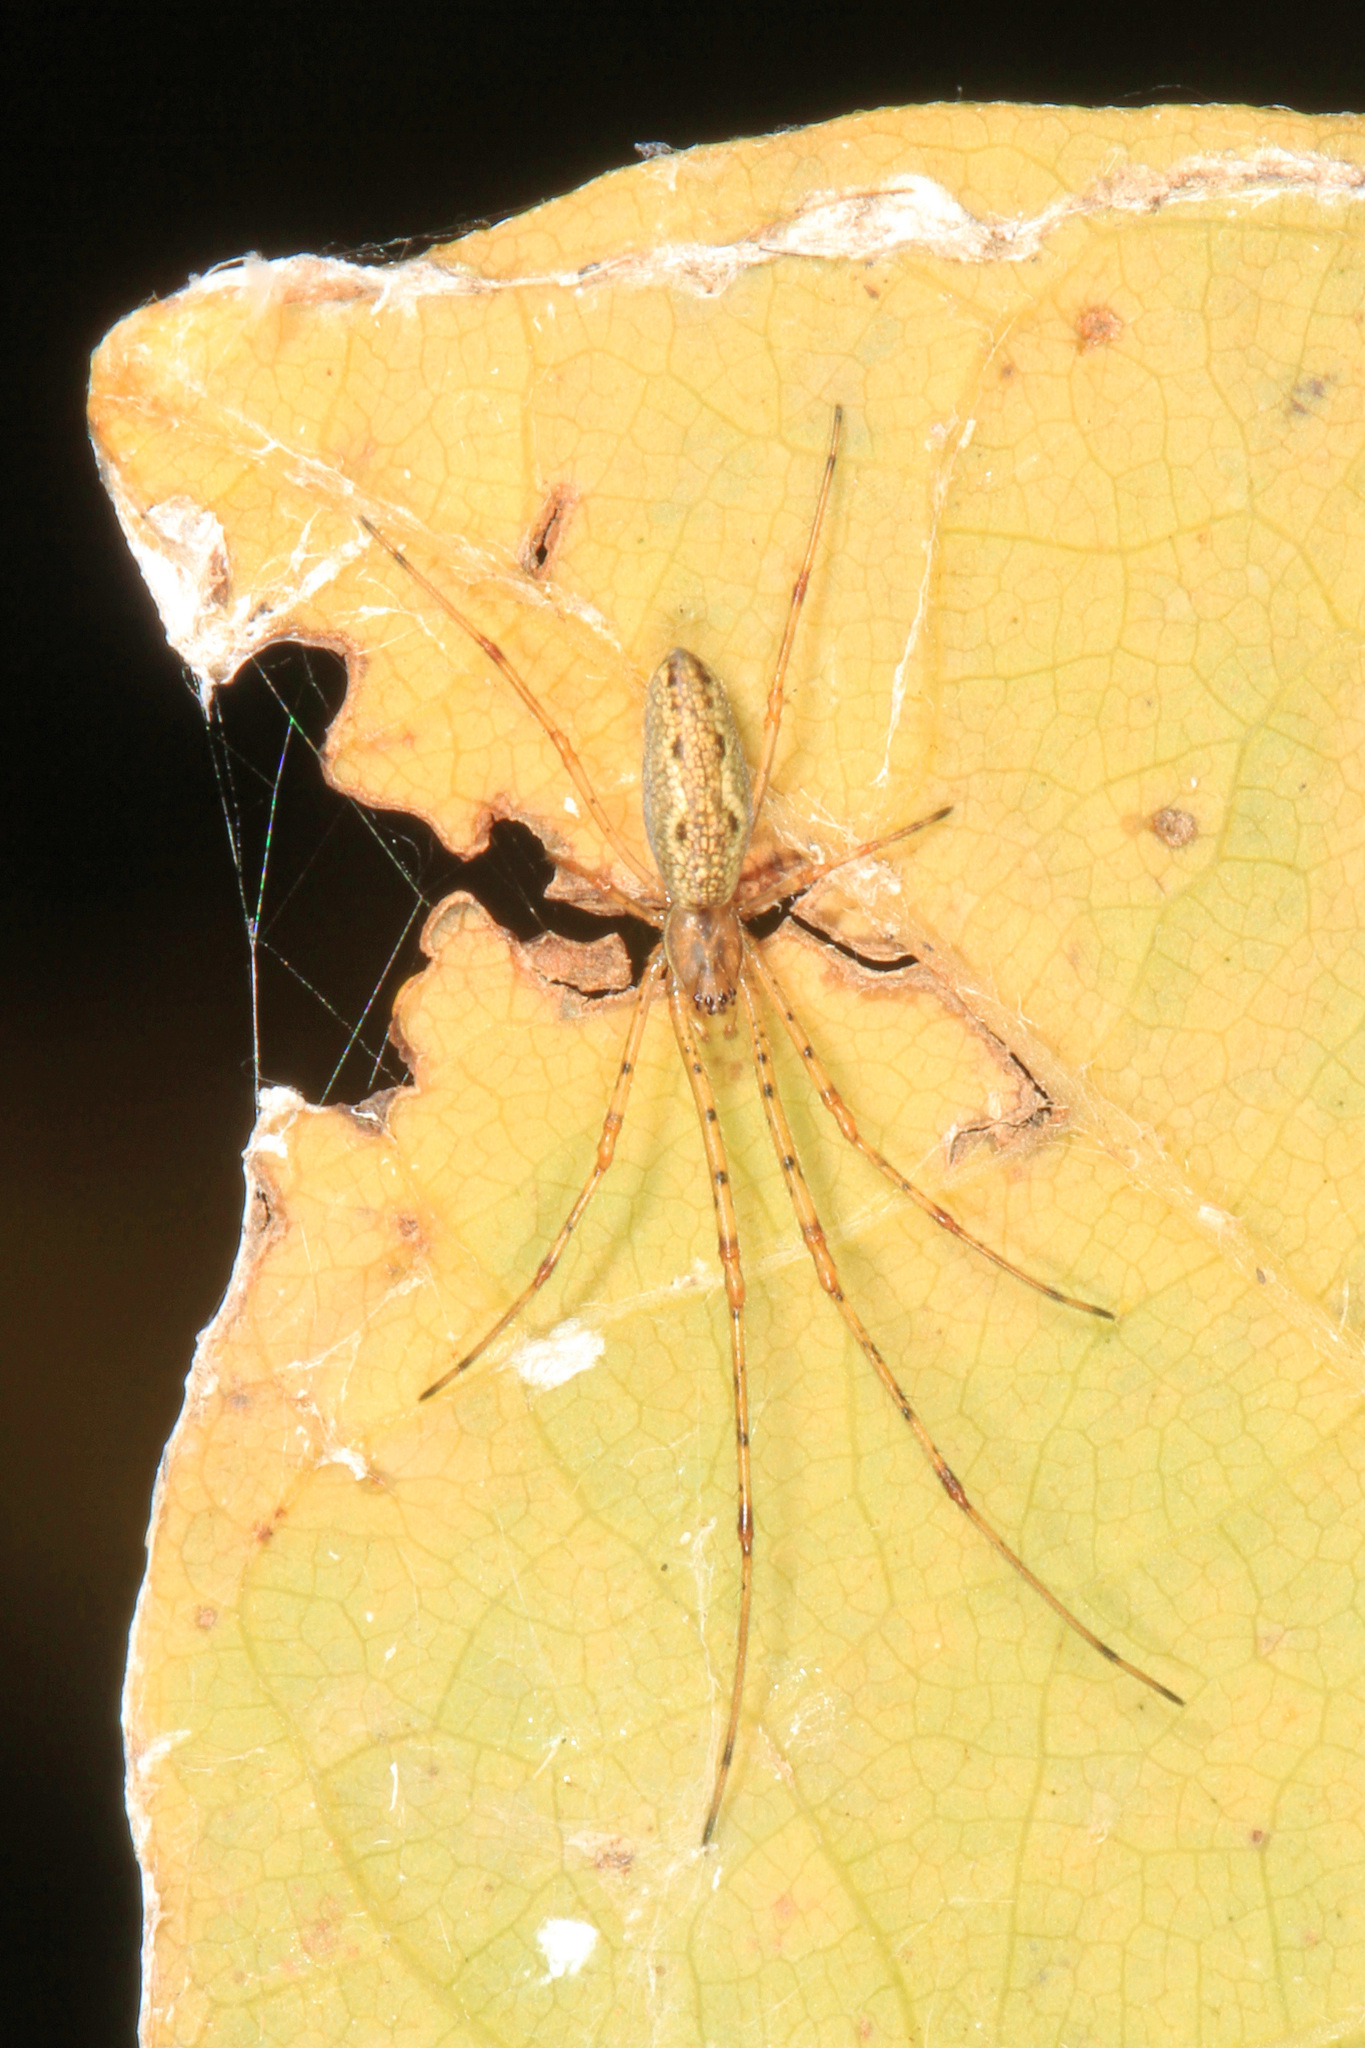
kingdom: Animalia
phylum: Arthropoda
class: Arachnida
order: Araneae
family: Tetragnathidae
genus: Tetragnatha
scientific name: Tetragnatha
